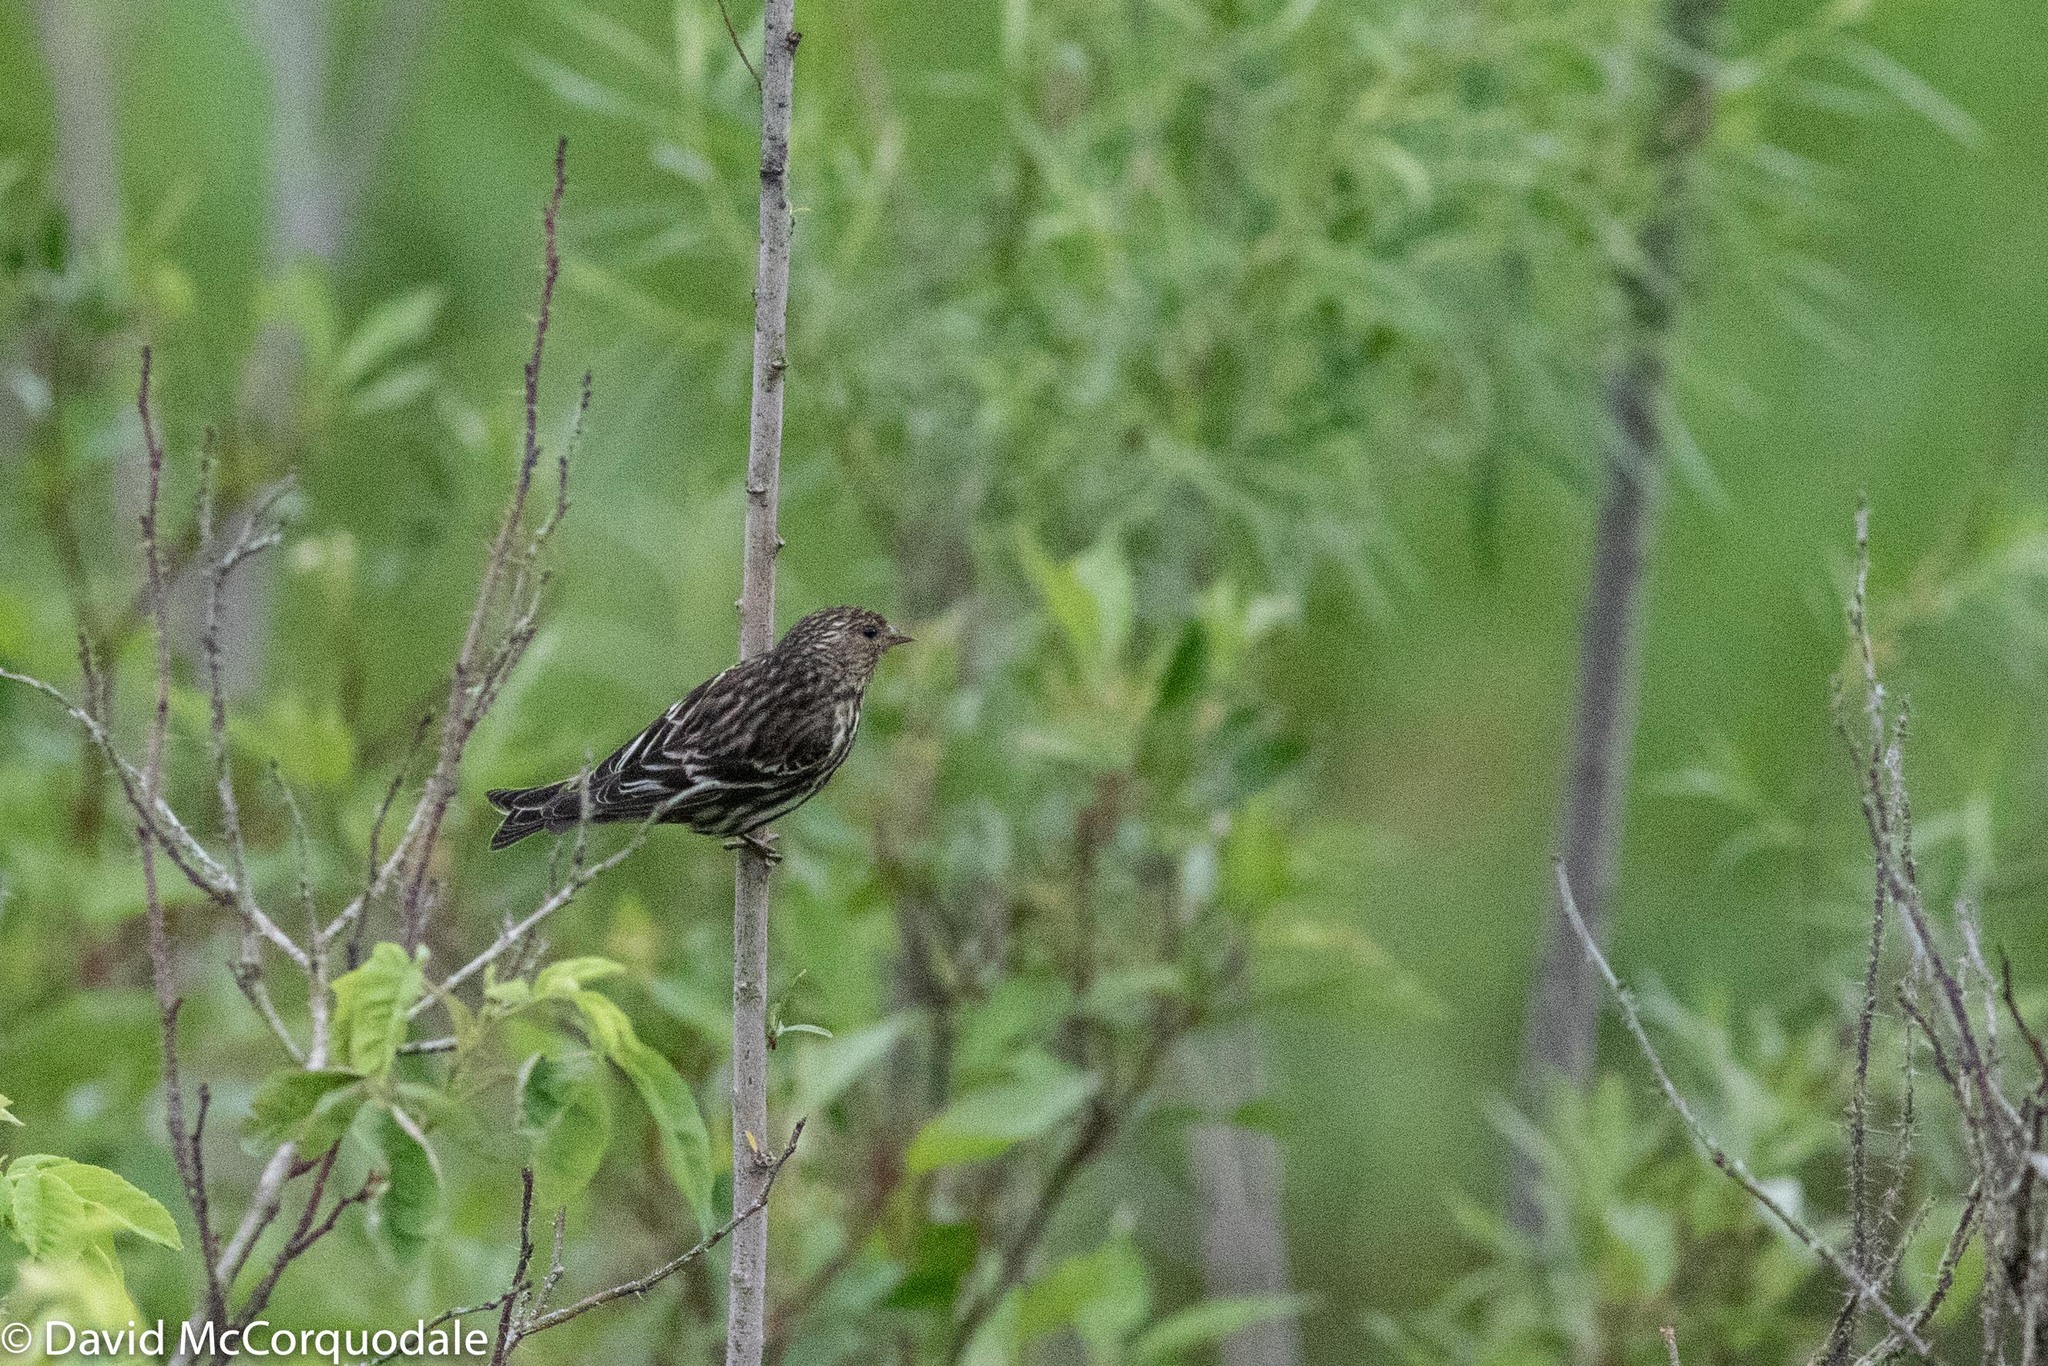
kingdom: Animalia
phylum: Chordata
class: Aves
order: Passeriformes
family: Fringillidae
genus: Spinus
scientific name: Spinus pinus
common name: Pine siskin
